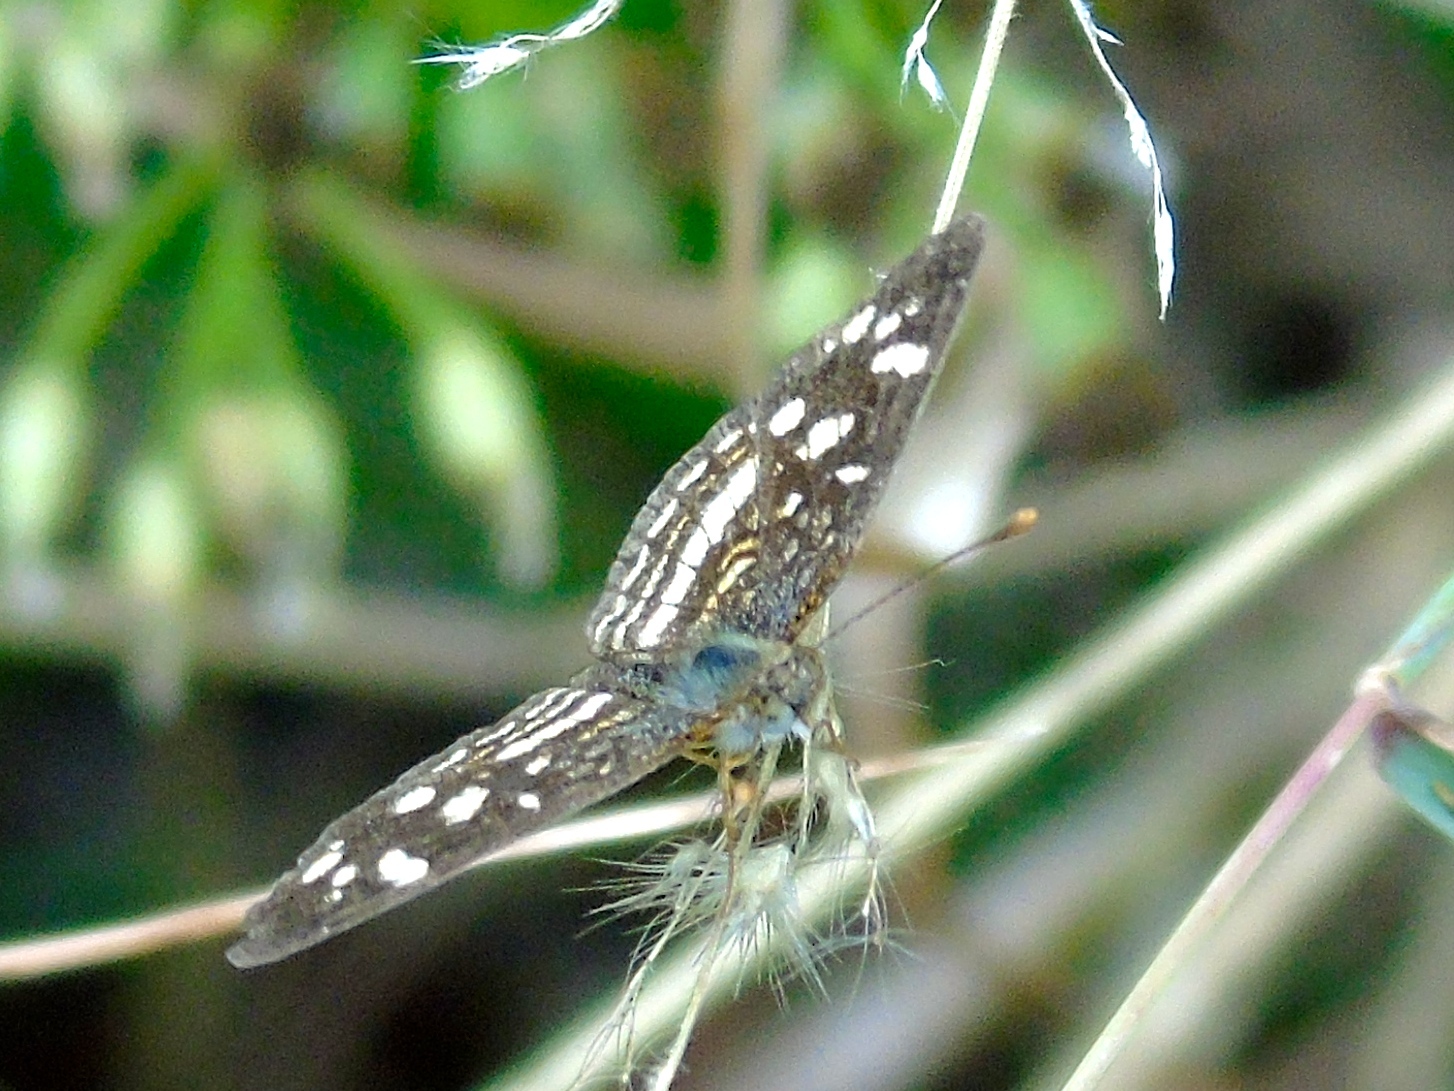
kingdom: Animalia
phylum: Arthropoda
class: Insecta
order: Lepidoptera
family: Nymphalidae
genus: Anthanassa
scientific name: Anthanassa
